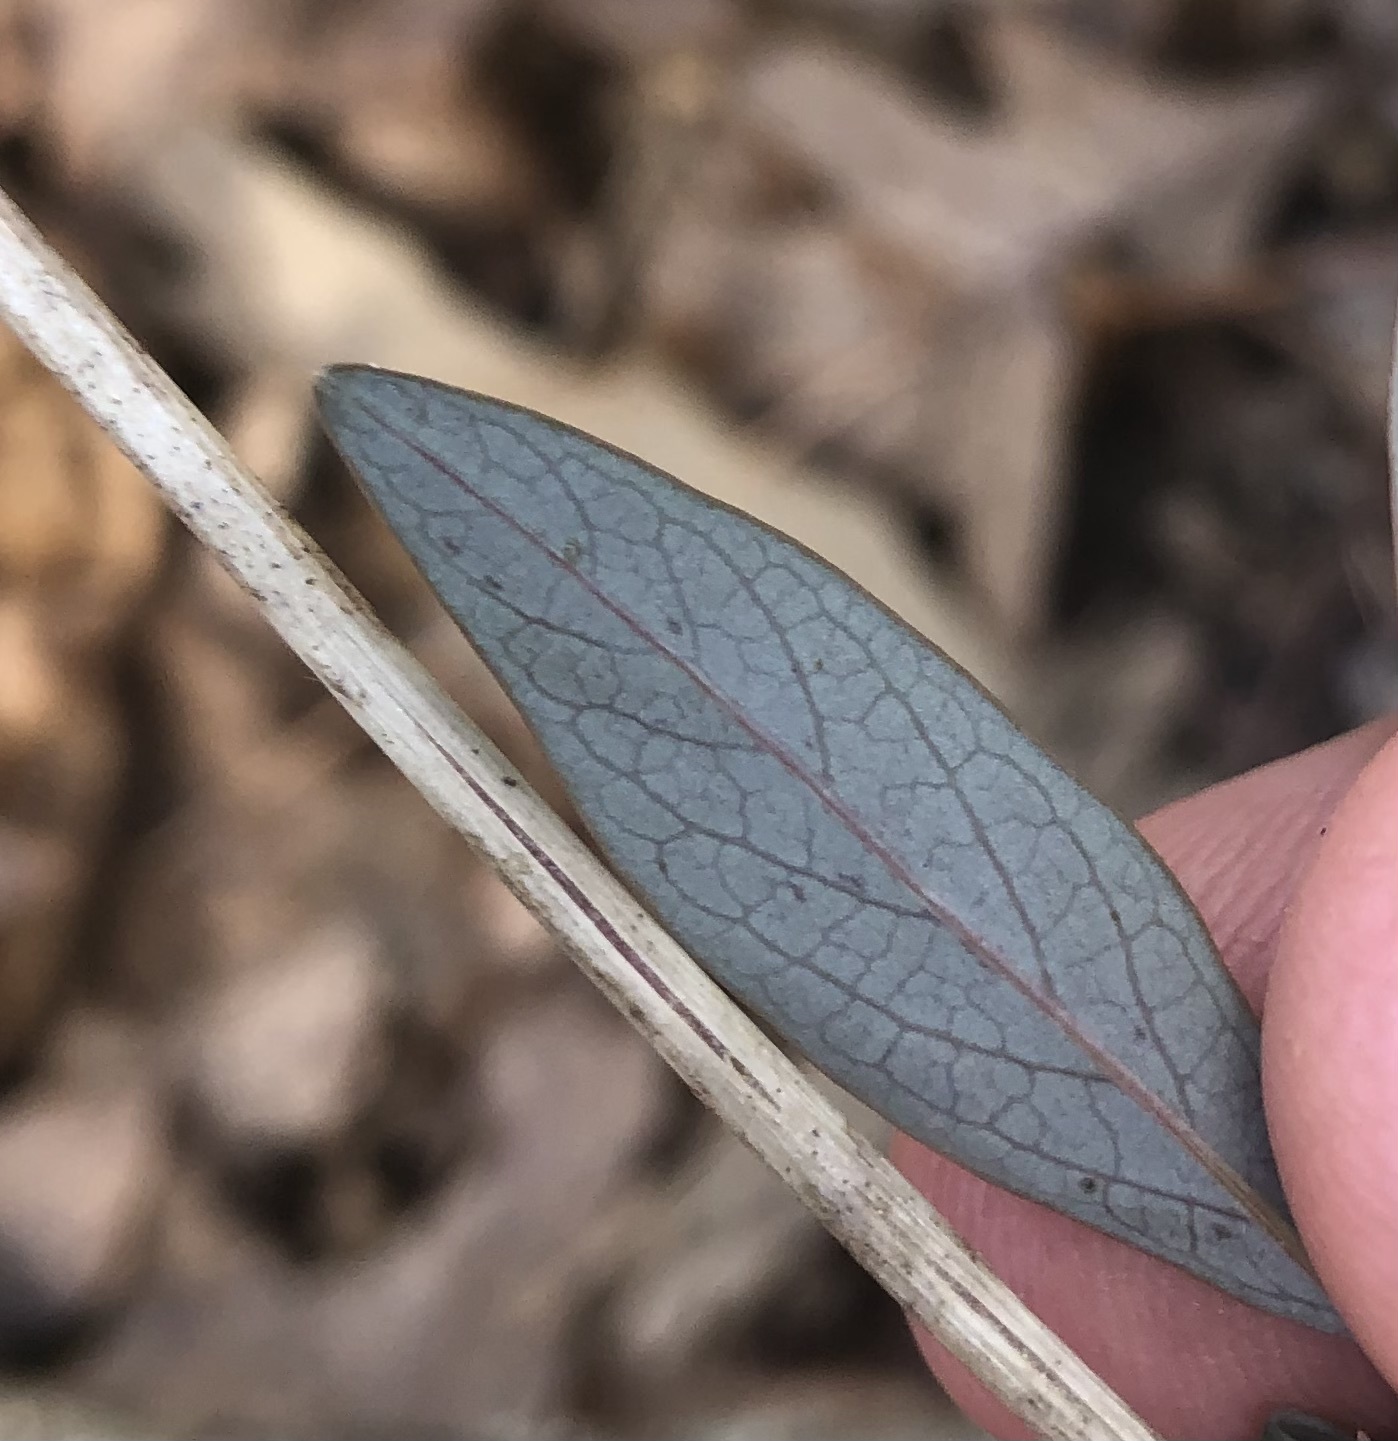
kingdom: Animalia
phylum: Arthropoda
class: Insecta
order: Diptera
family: Agromyzidae
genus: Aulagromyza
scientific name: Aulagromyza orbitalis
